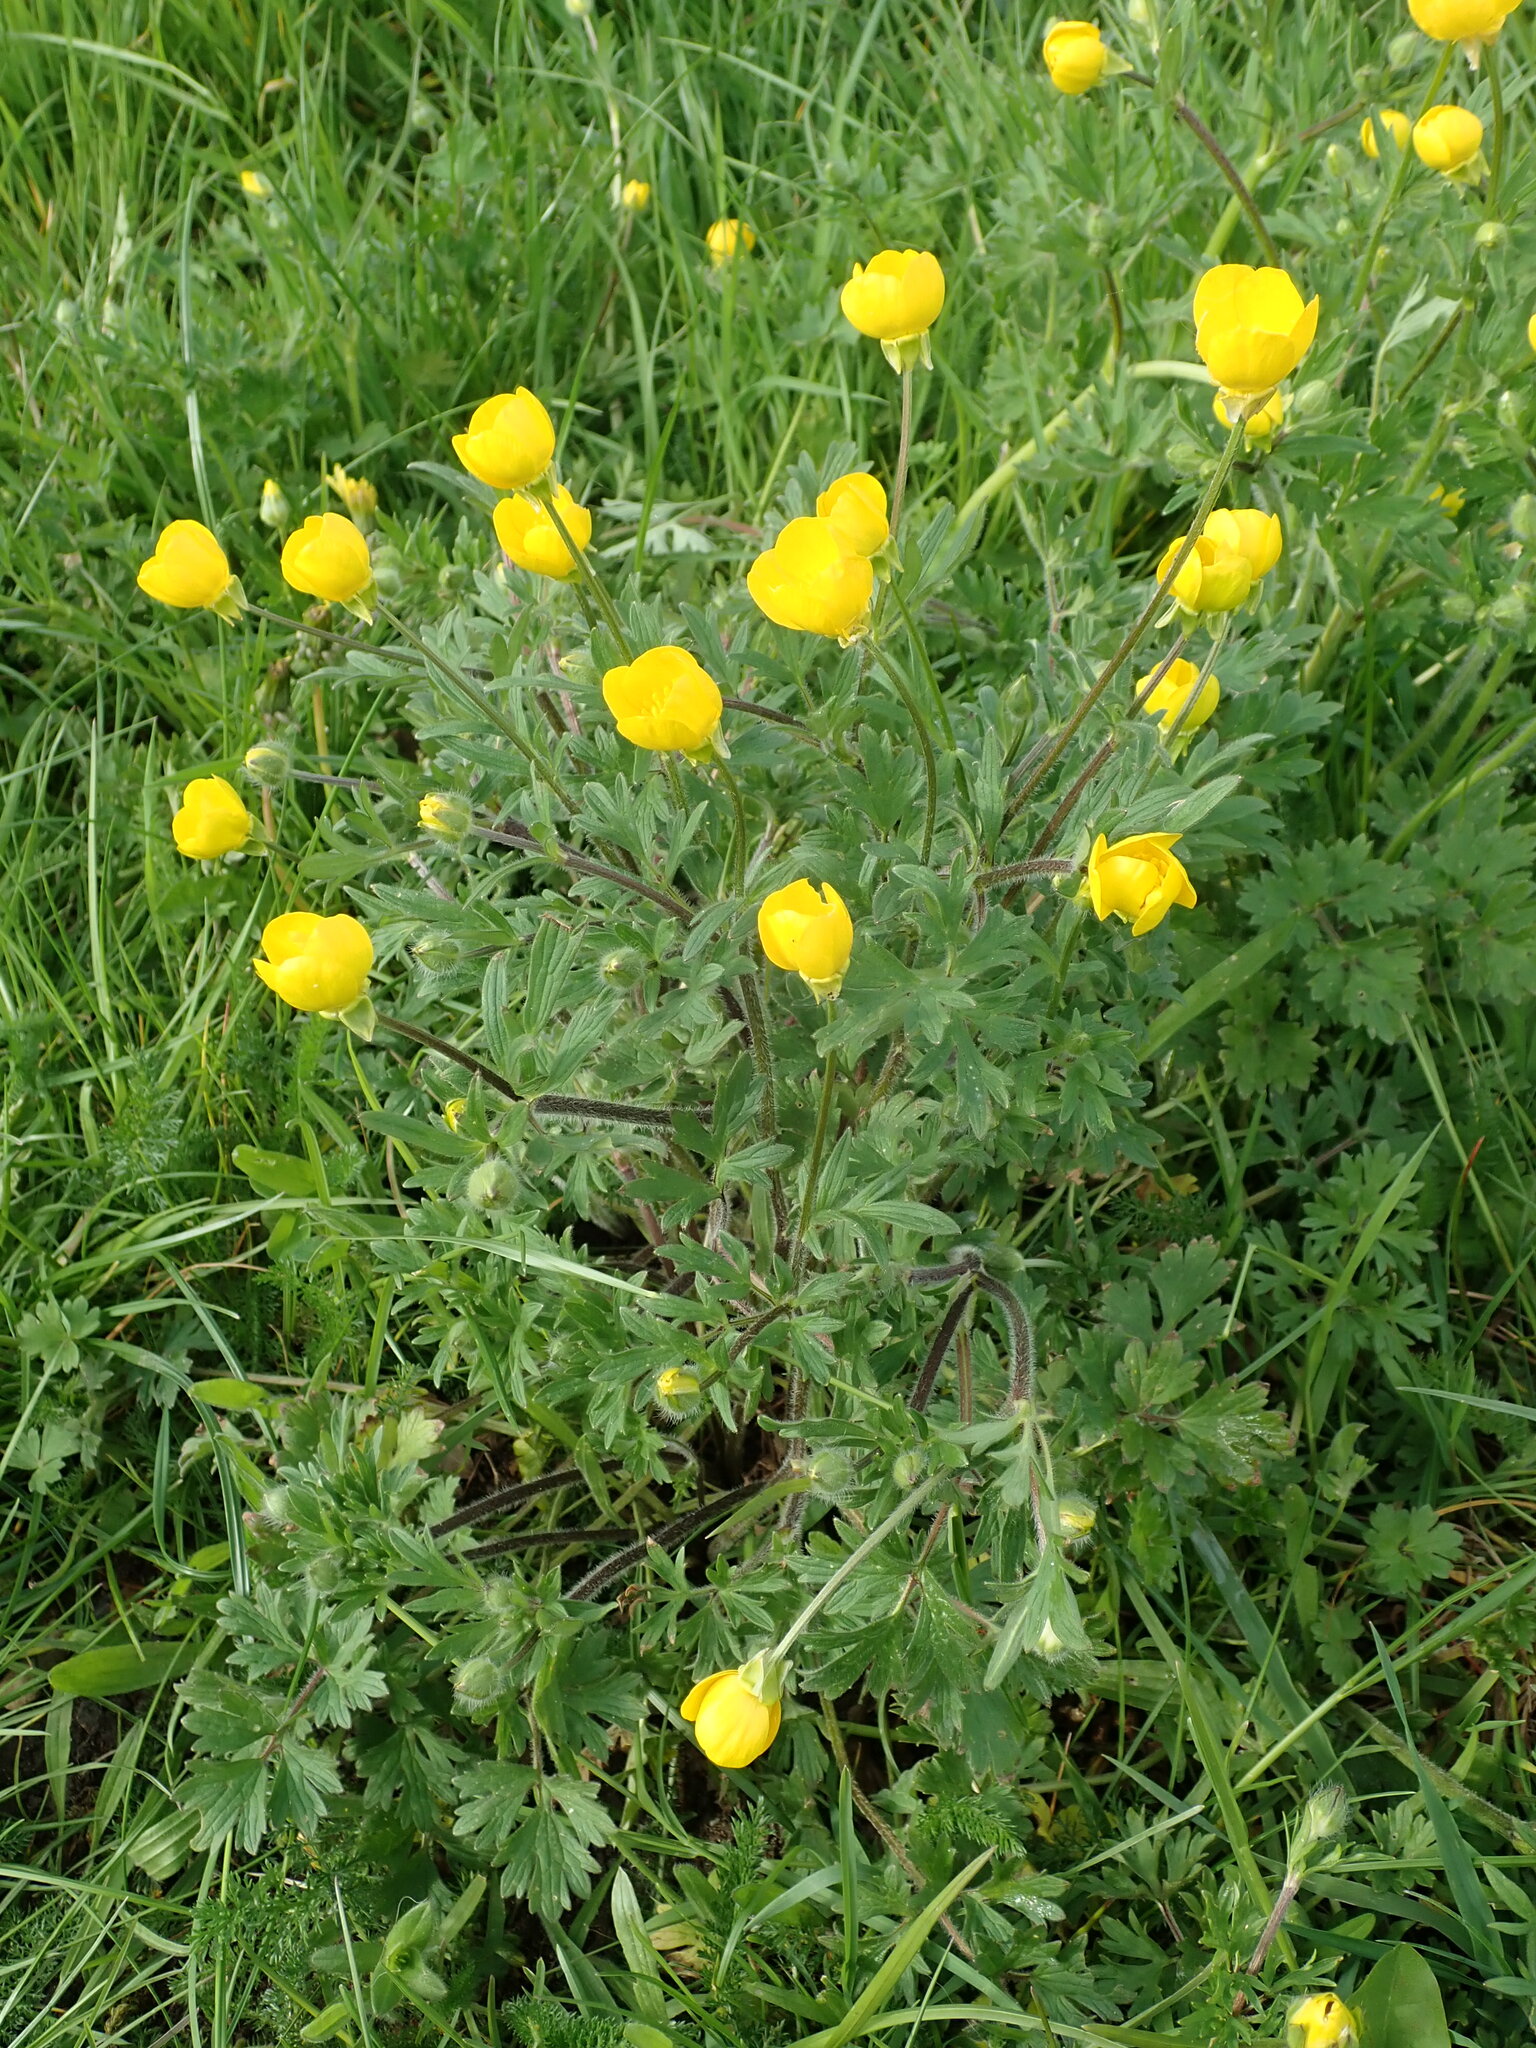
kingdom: Plantae
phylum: Tracheophyta
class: Magnoliopsida
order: Ranunculales
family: Ranunculaceae
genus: Ranunculus
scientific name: Ranunculus bulbosus
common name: Bulbous buttercup
